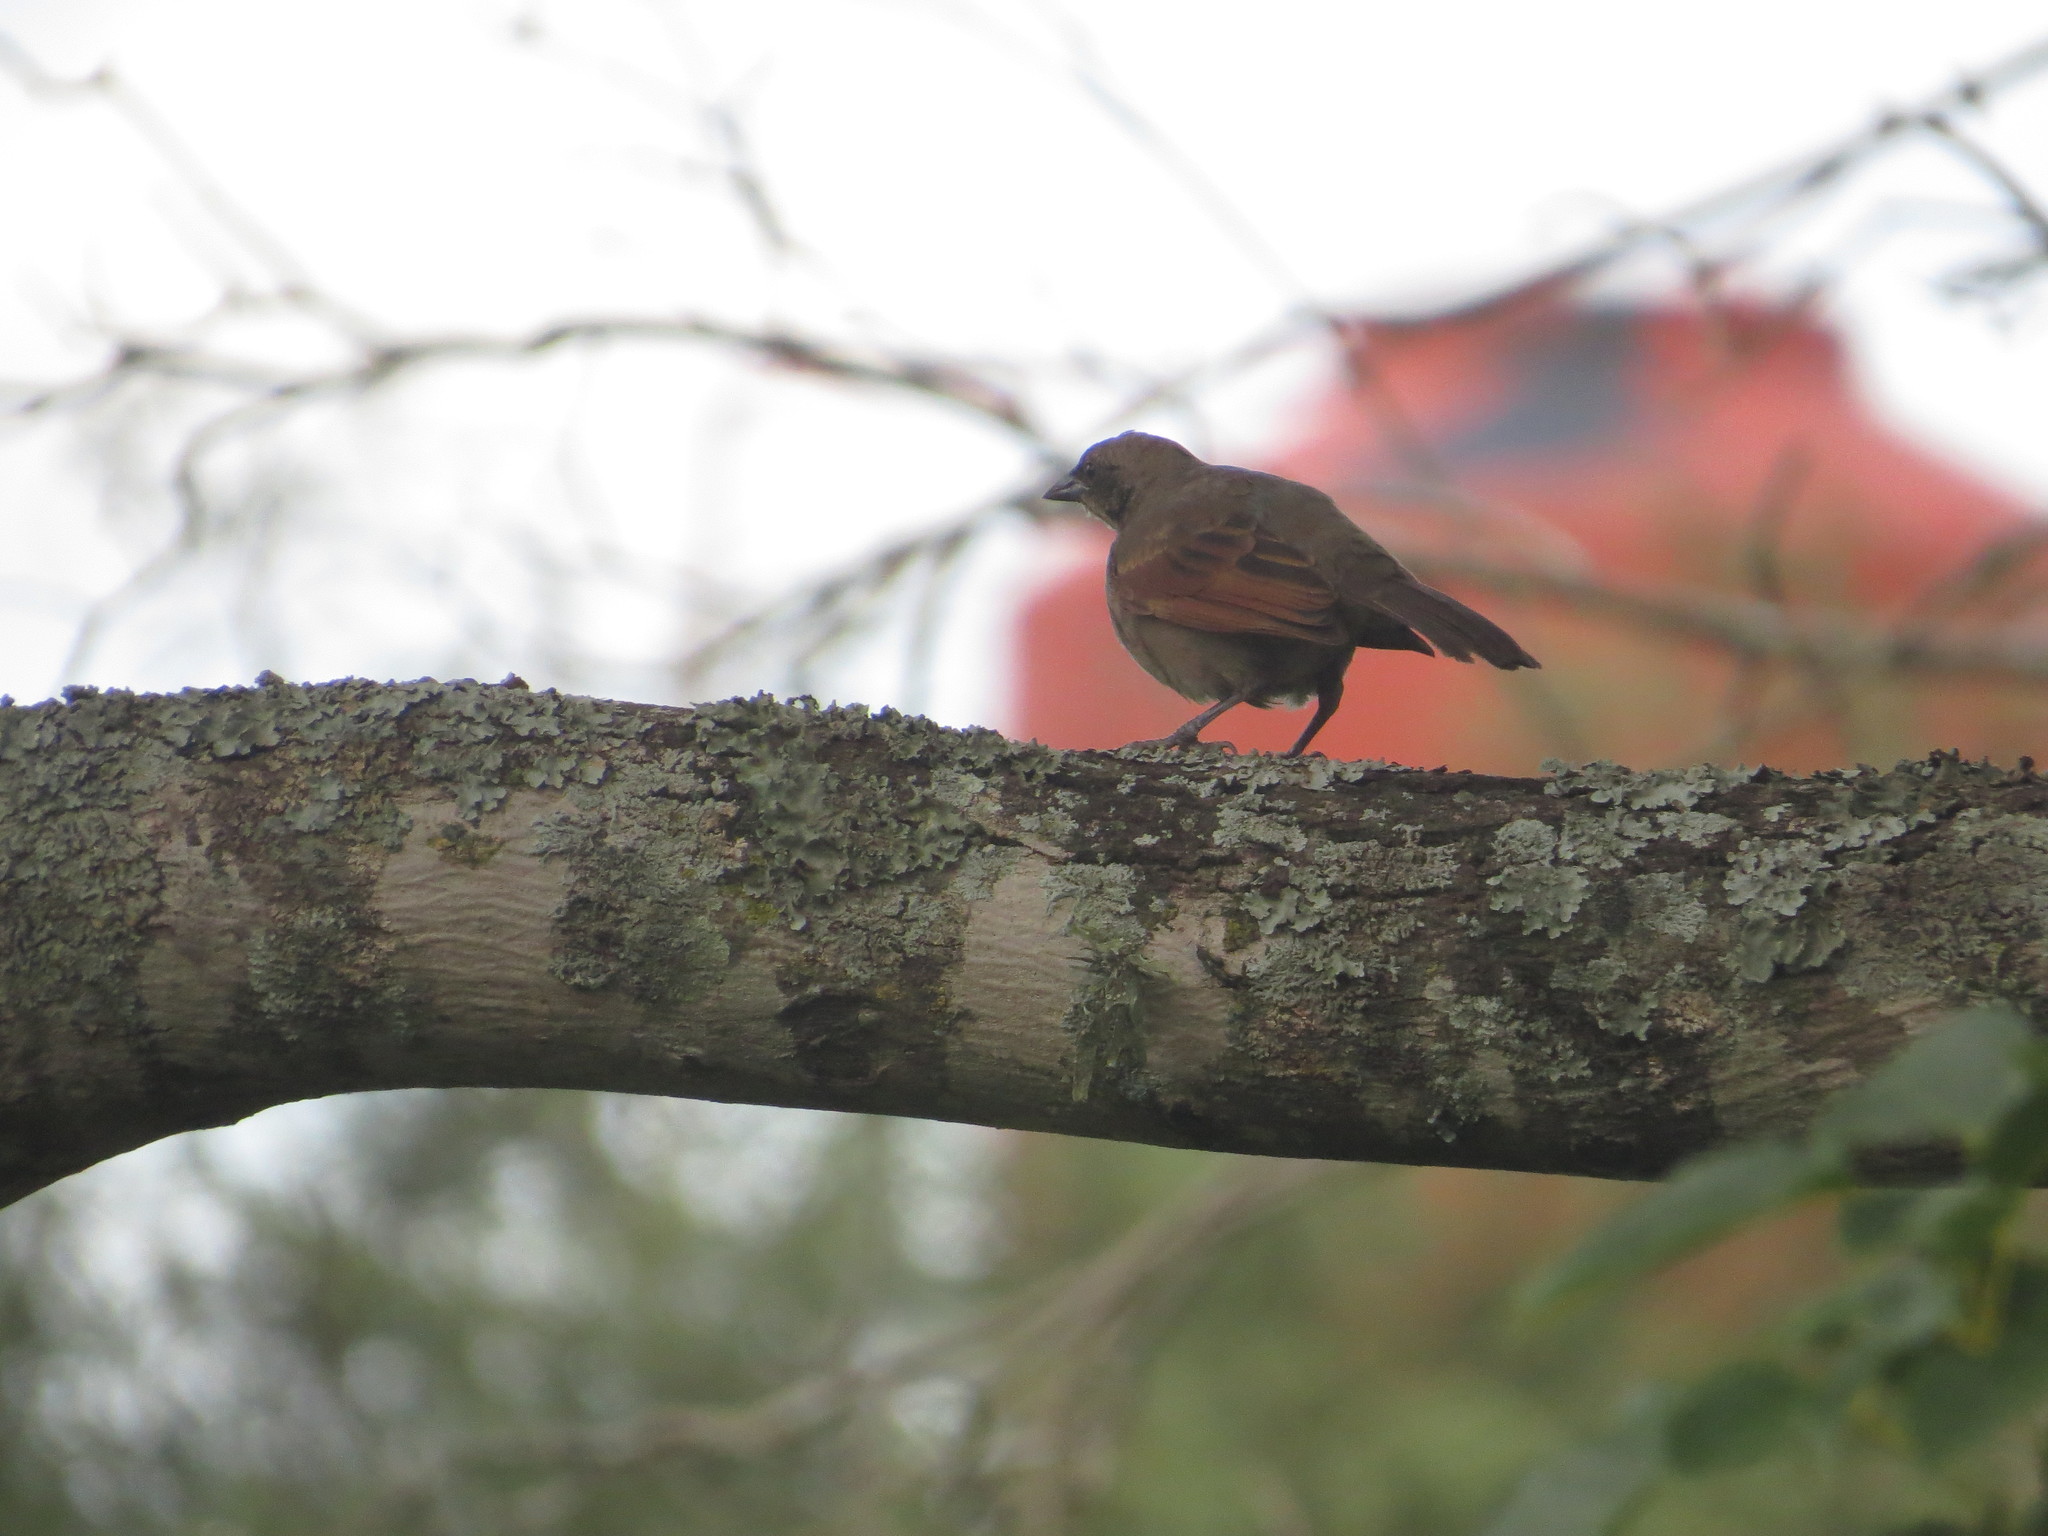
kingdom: Animalia
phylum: Chordata
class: Aves
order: Passeriformes
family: Icteridae
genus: Molothrus
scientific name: Molothrus rufoaxillaris
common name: Screaming cowbird
